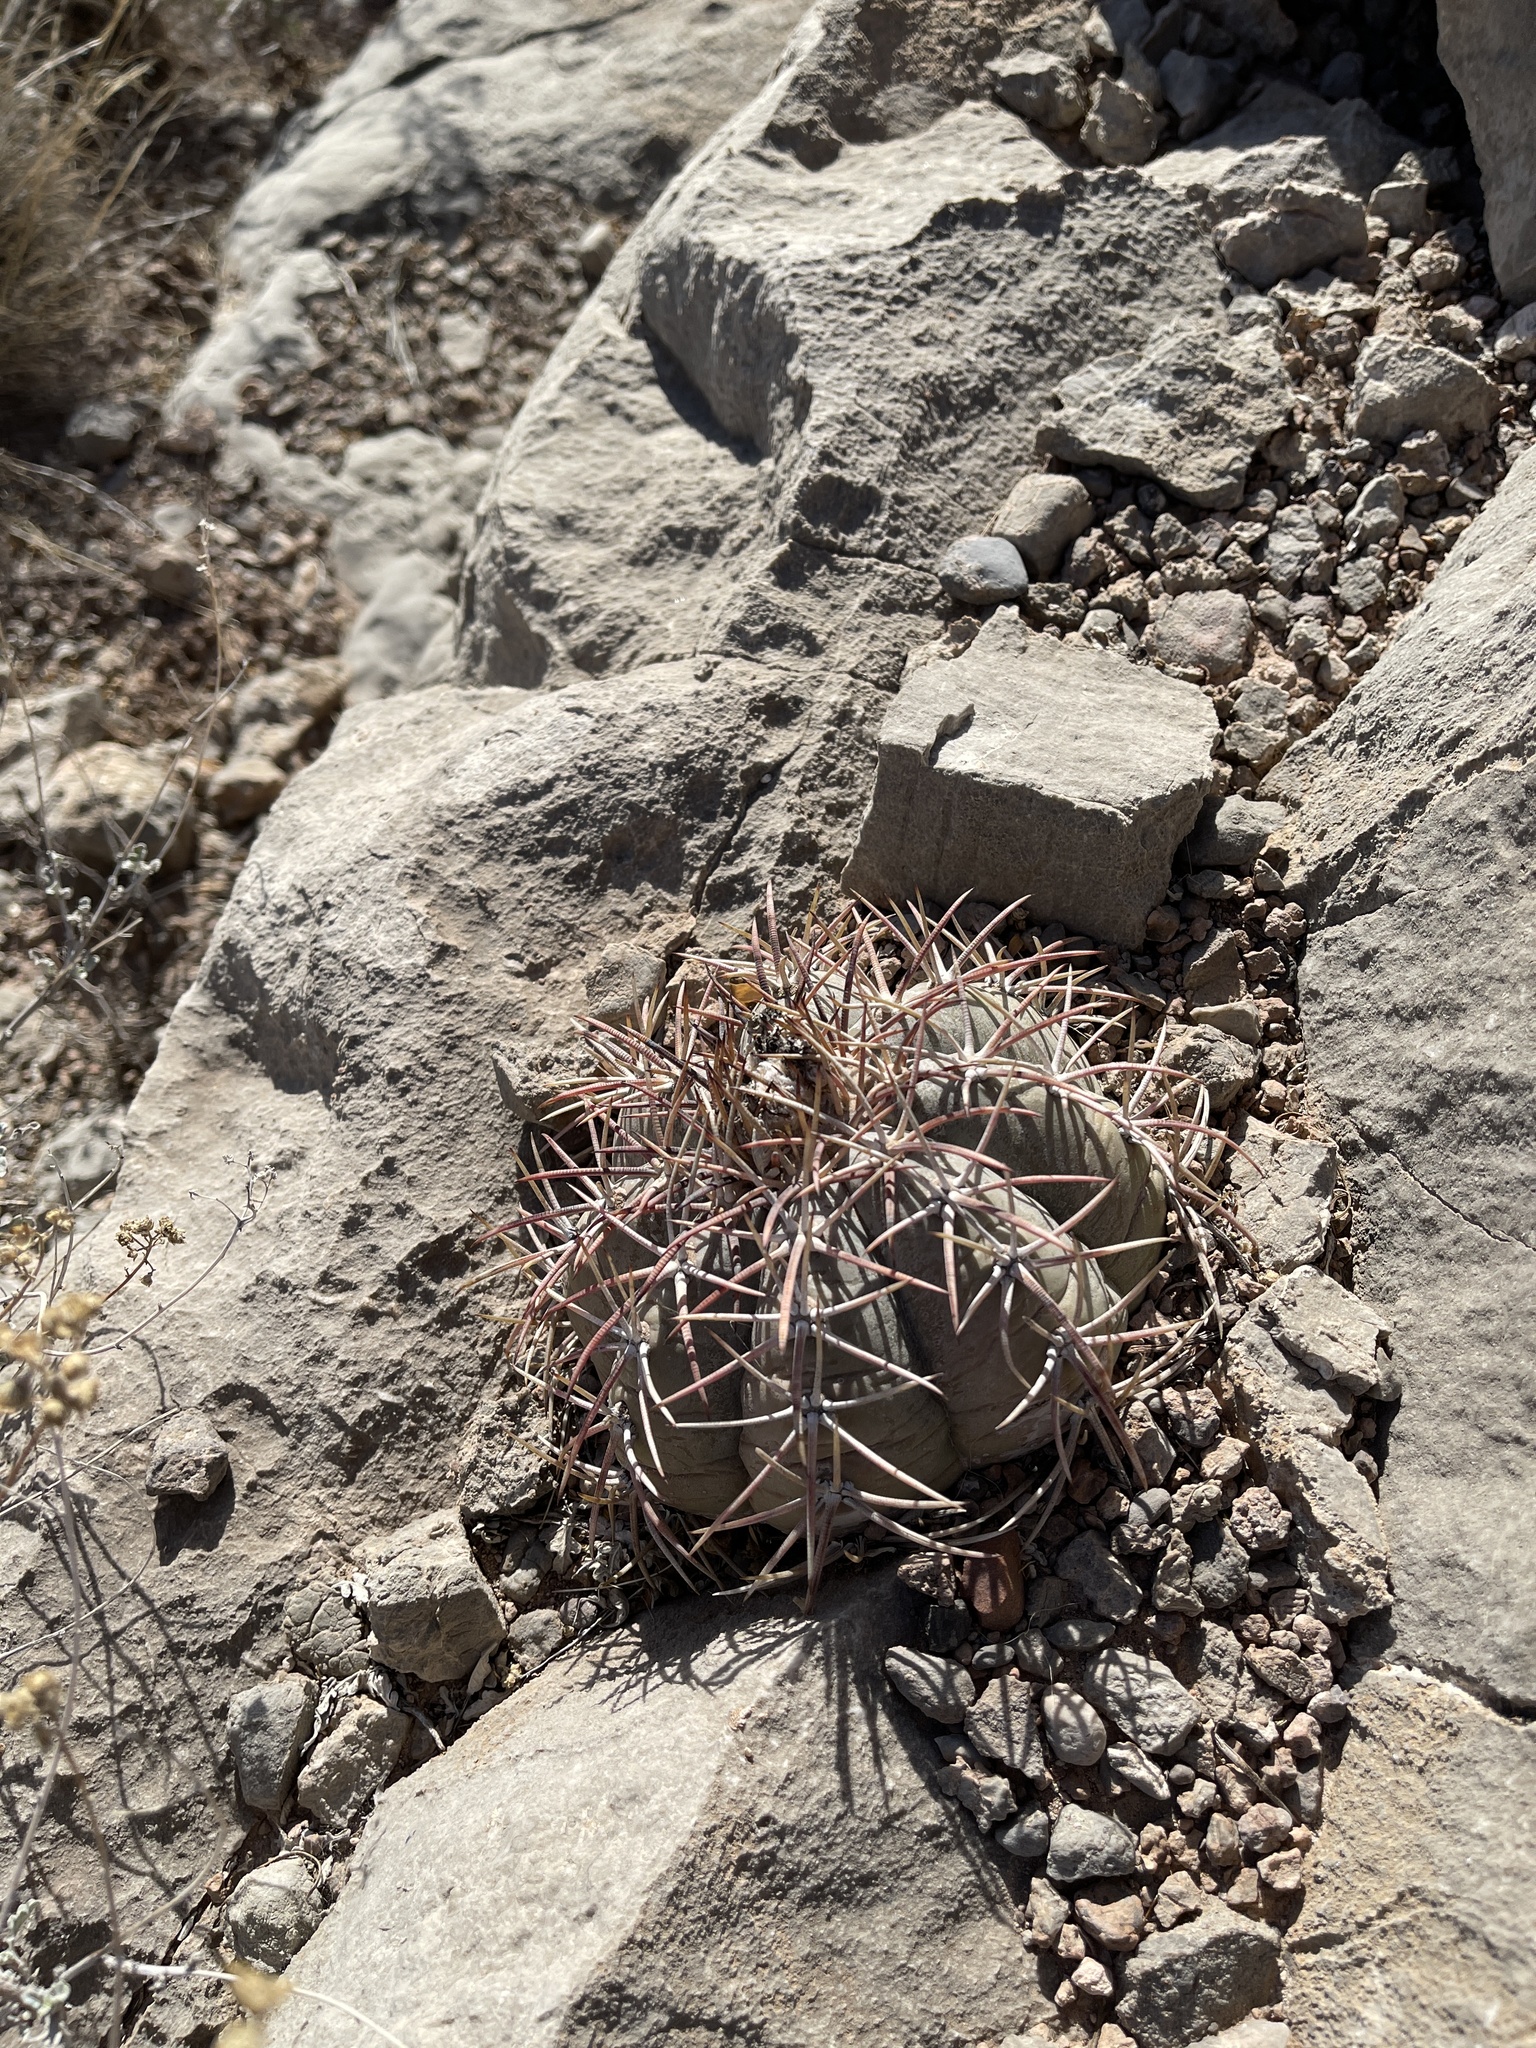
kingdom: Plantae
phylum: Tracheophyta
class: Magnoliopsida
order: Caryophyllales
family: Cactaceae
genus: Echinocactus
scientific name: Echinocactus horizonthalonius
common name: Devilshead
